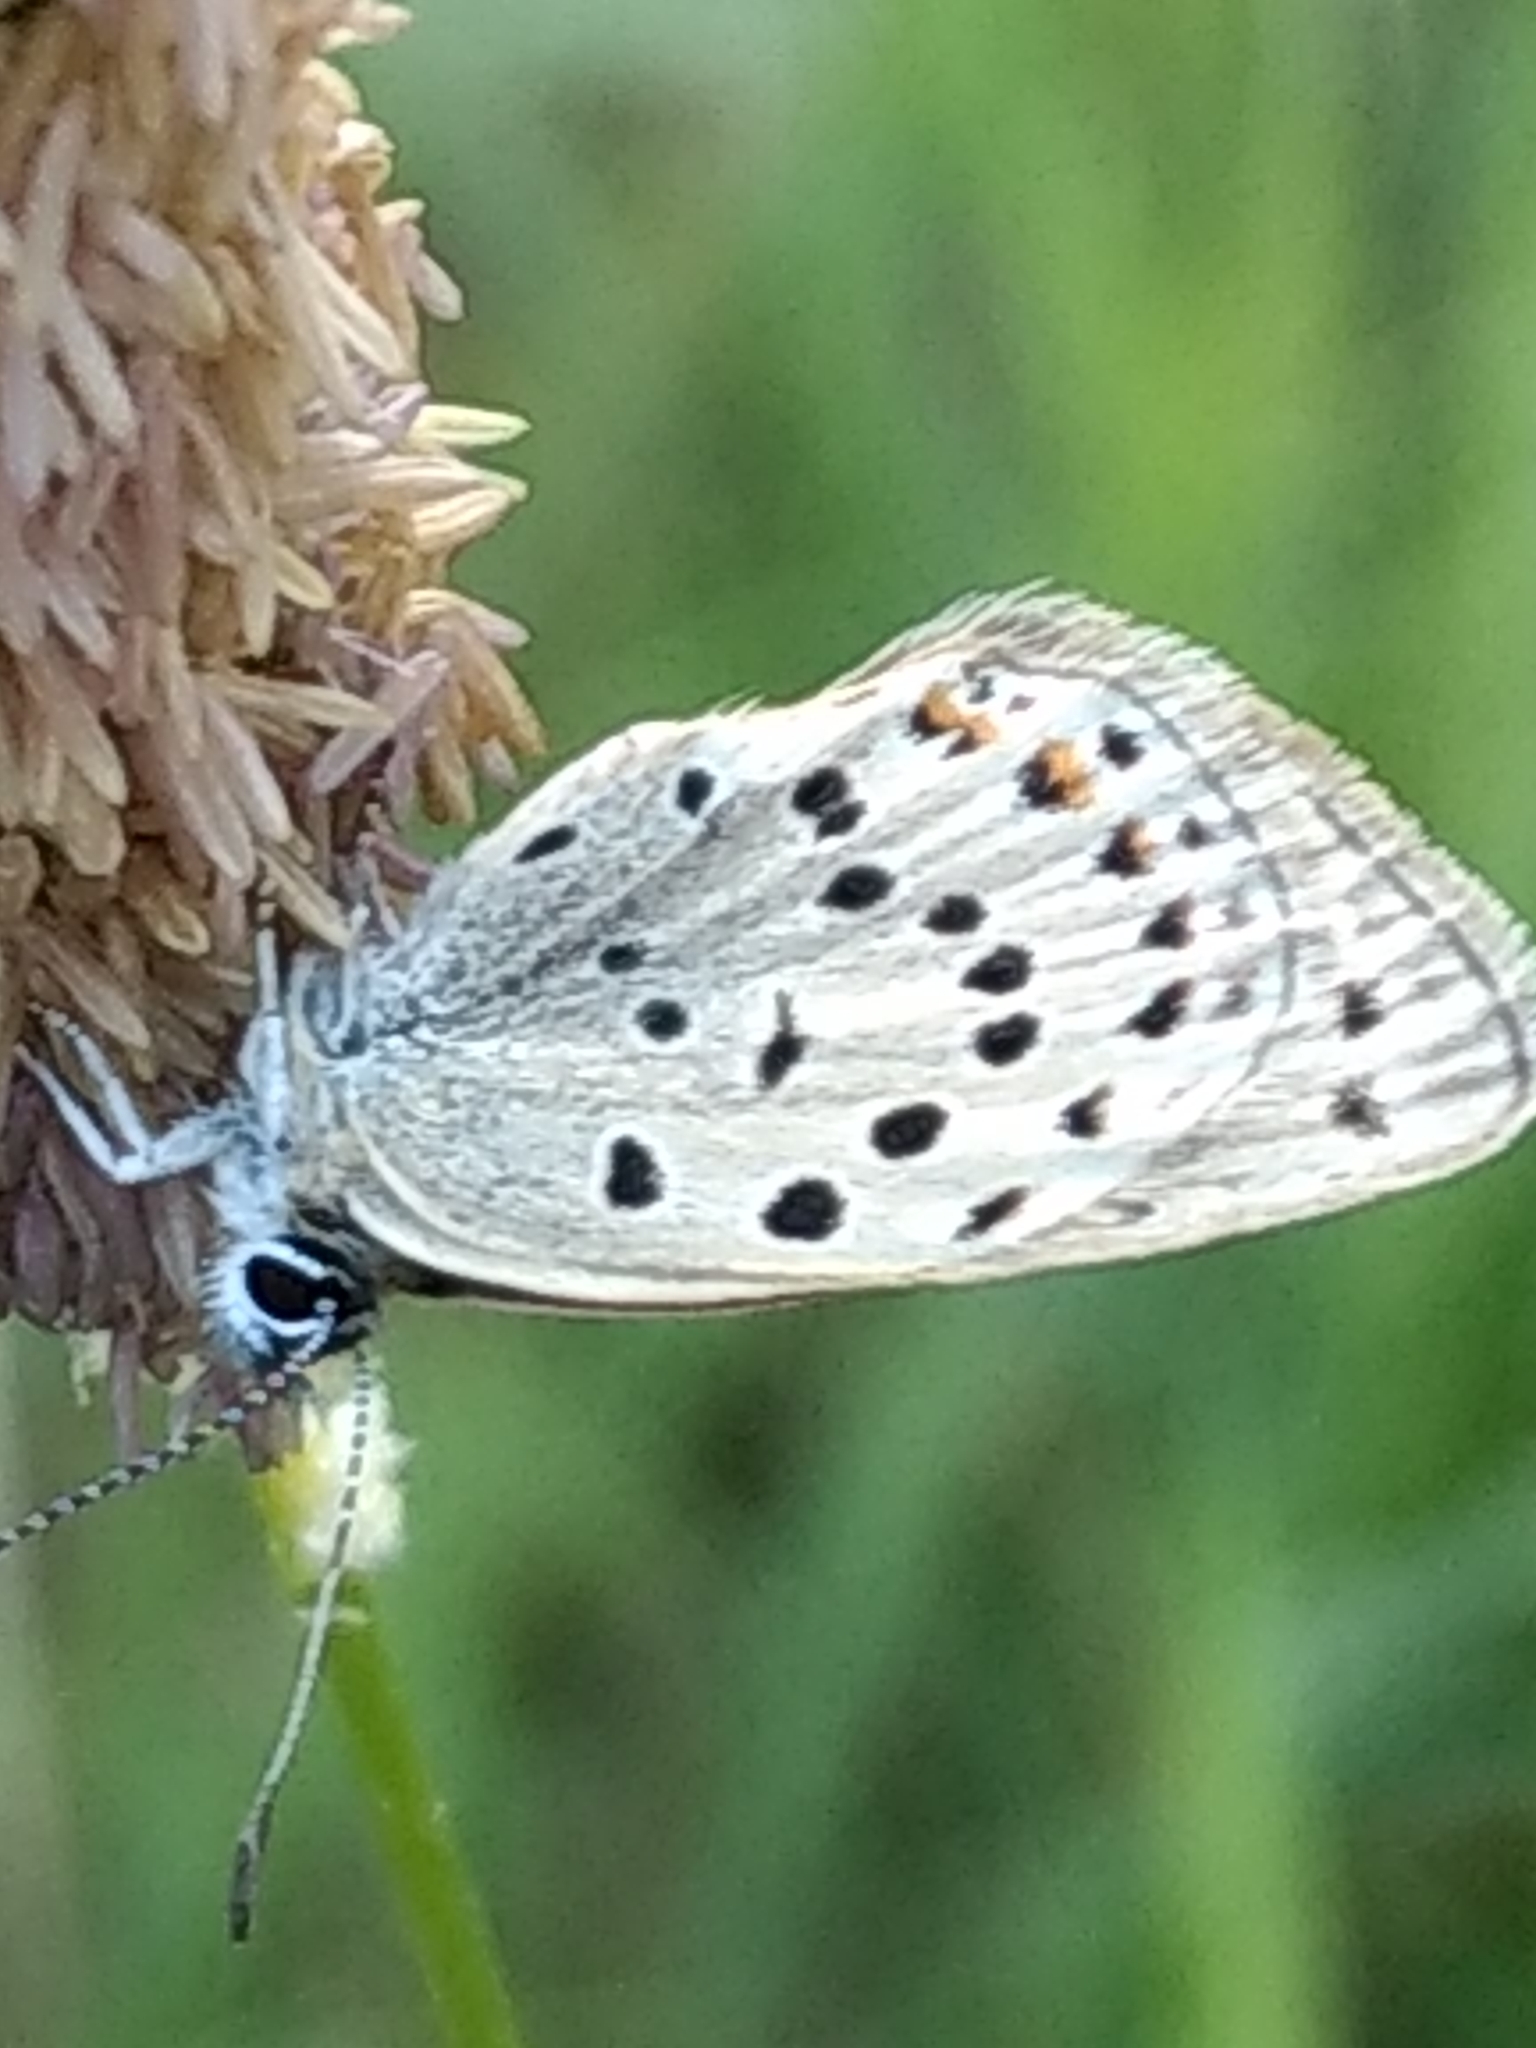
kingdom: Animalia
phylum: Arthropoda
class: Insecta
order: Lepidoptera
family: Lycaenidae
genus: Icaricia
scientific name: Icaricia saepiolus
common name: Greenish blue
